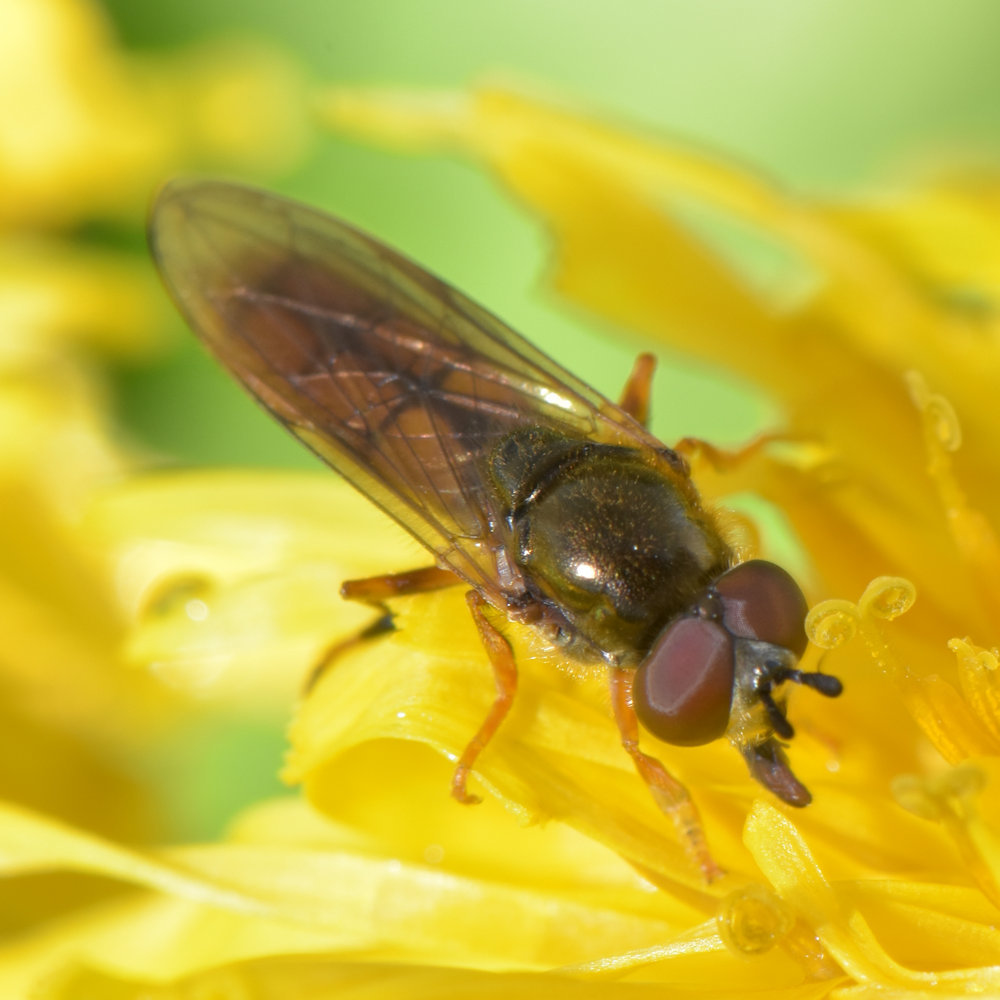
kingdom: Animalia
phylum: Arthropoda
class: Insecta
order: Diptera
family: Syrphidae
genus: Platycheirus
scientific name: Platycheirus quadratus
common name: Meadow sedgesitter
